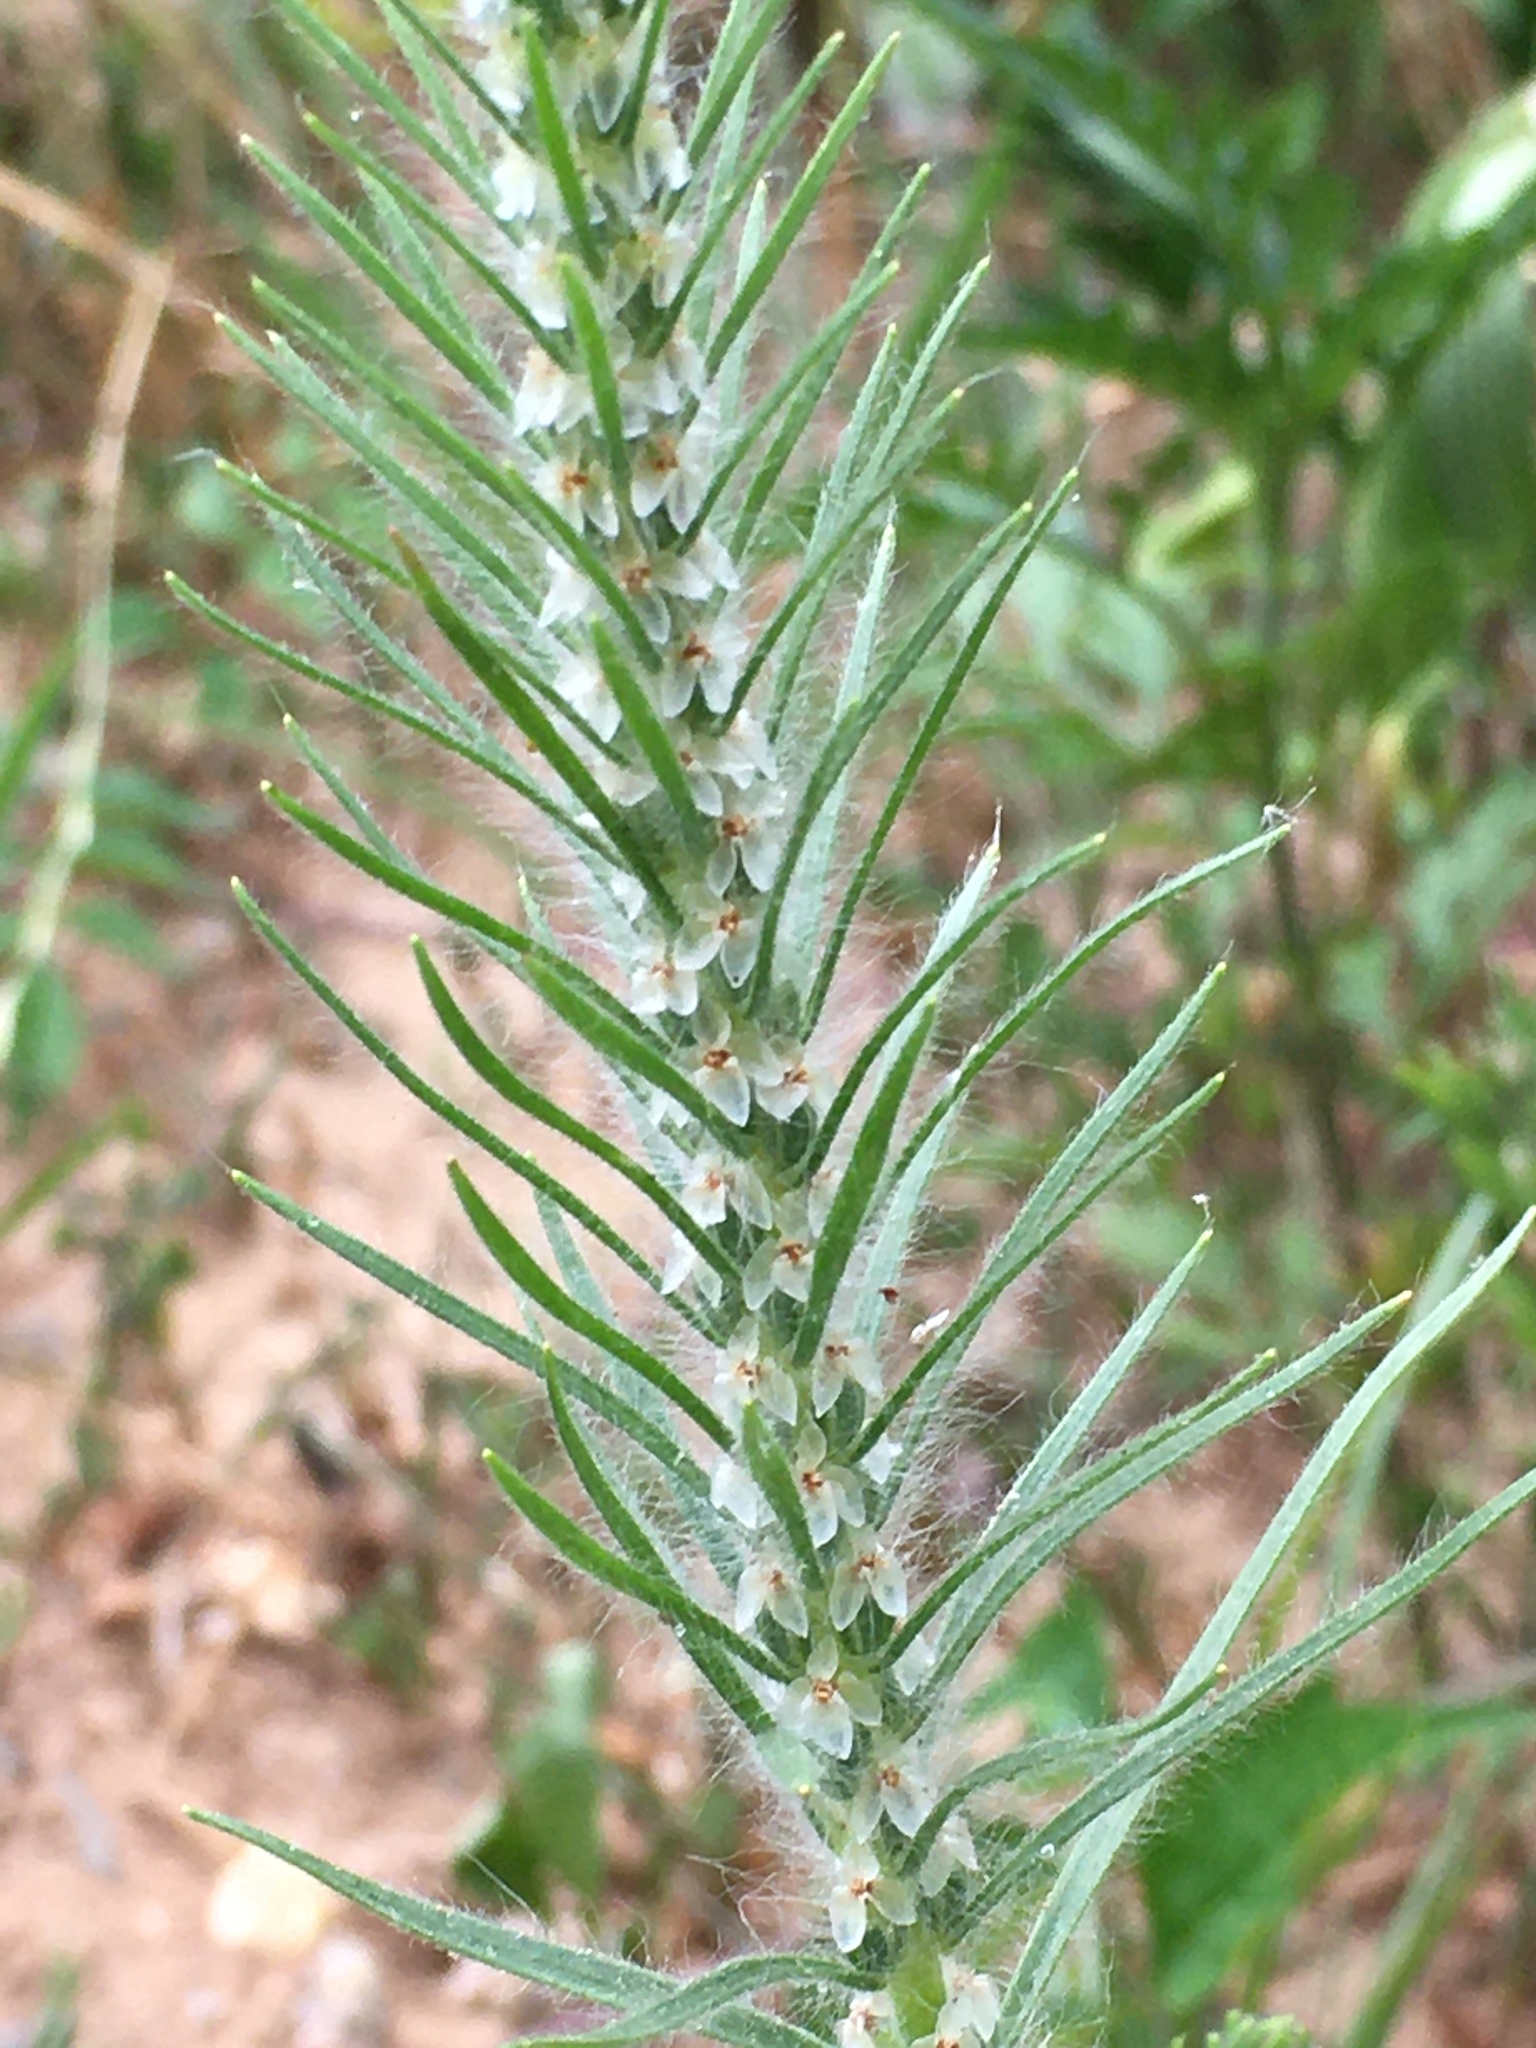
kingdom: Plantae
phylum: Tracheophyta
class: Magnoliopsida
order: Lamiales
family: Plantaginaceae
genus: Plantago
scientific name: Plantago aristata
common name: Bracted plantain
